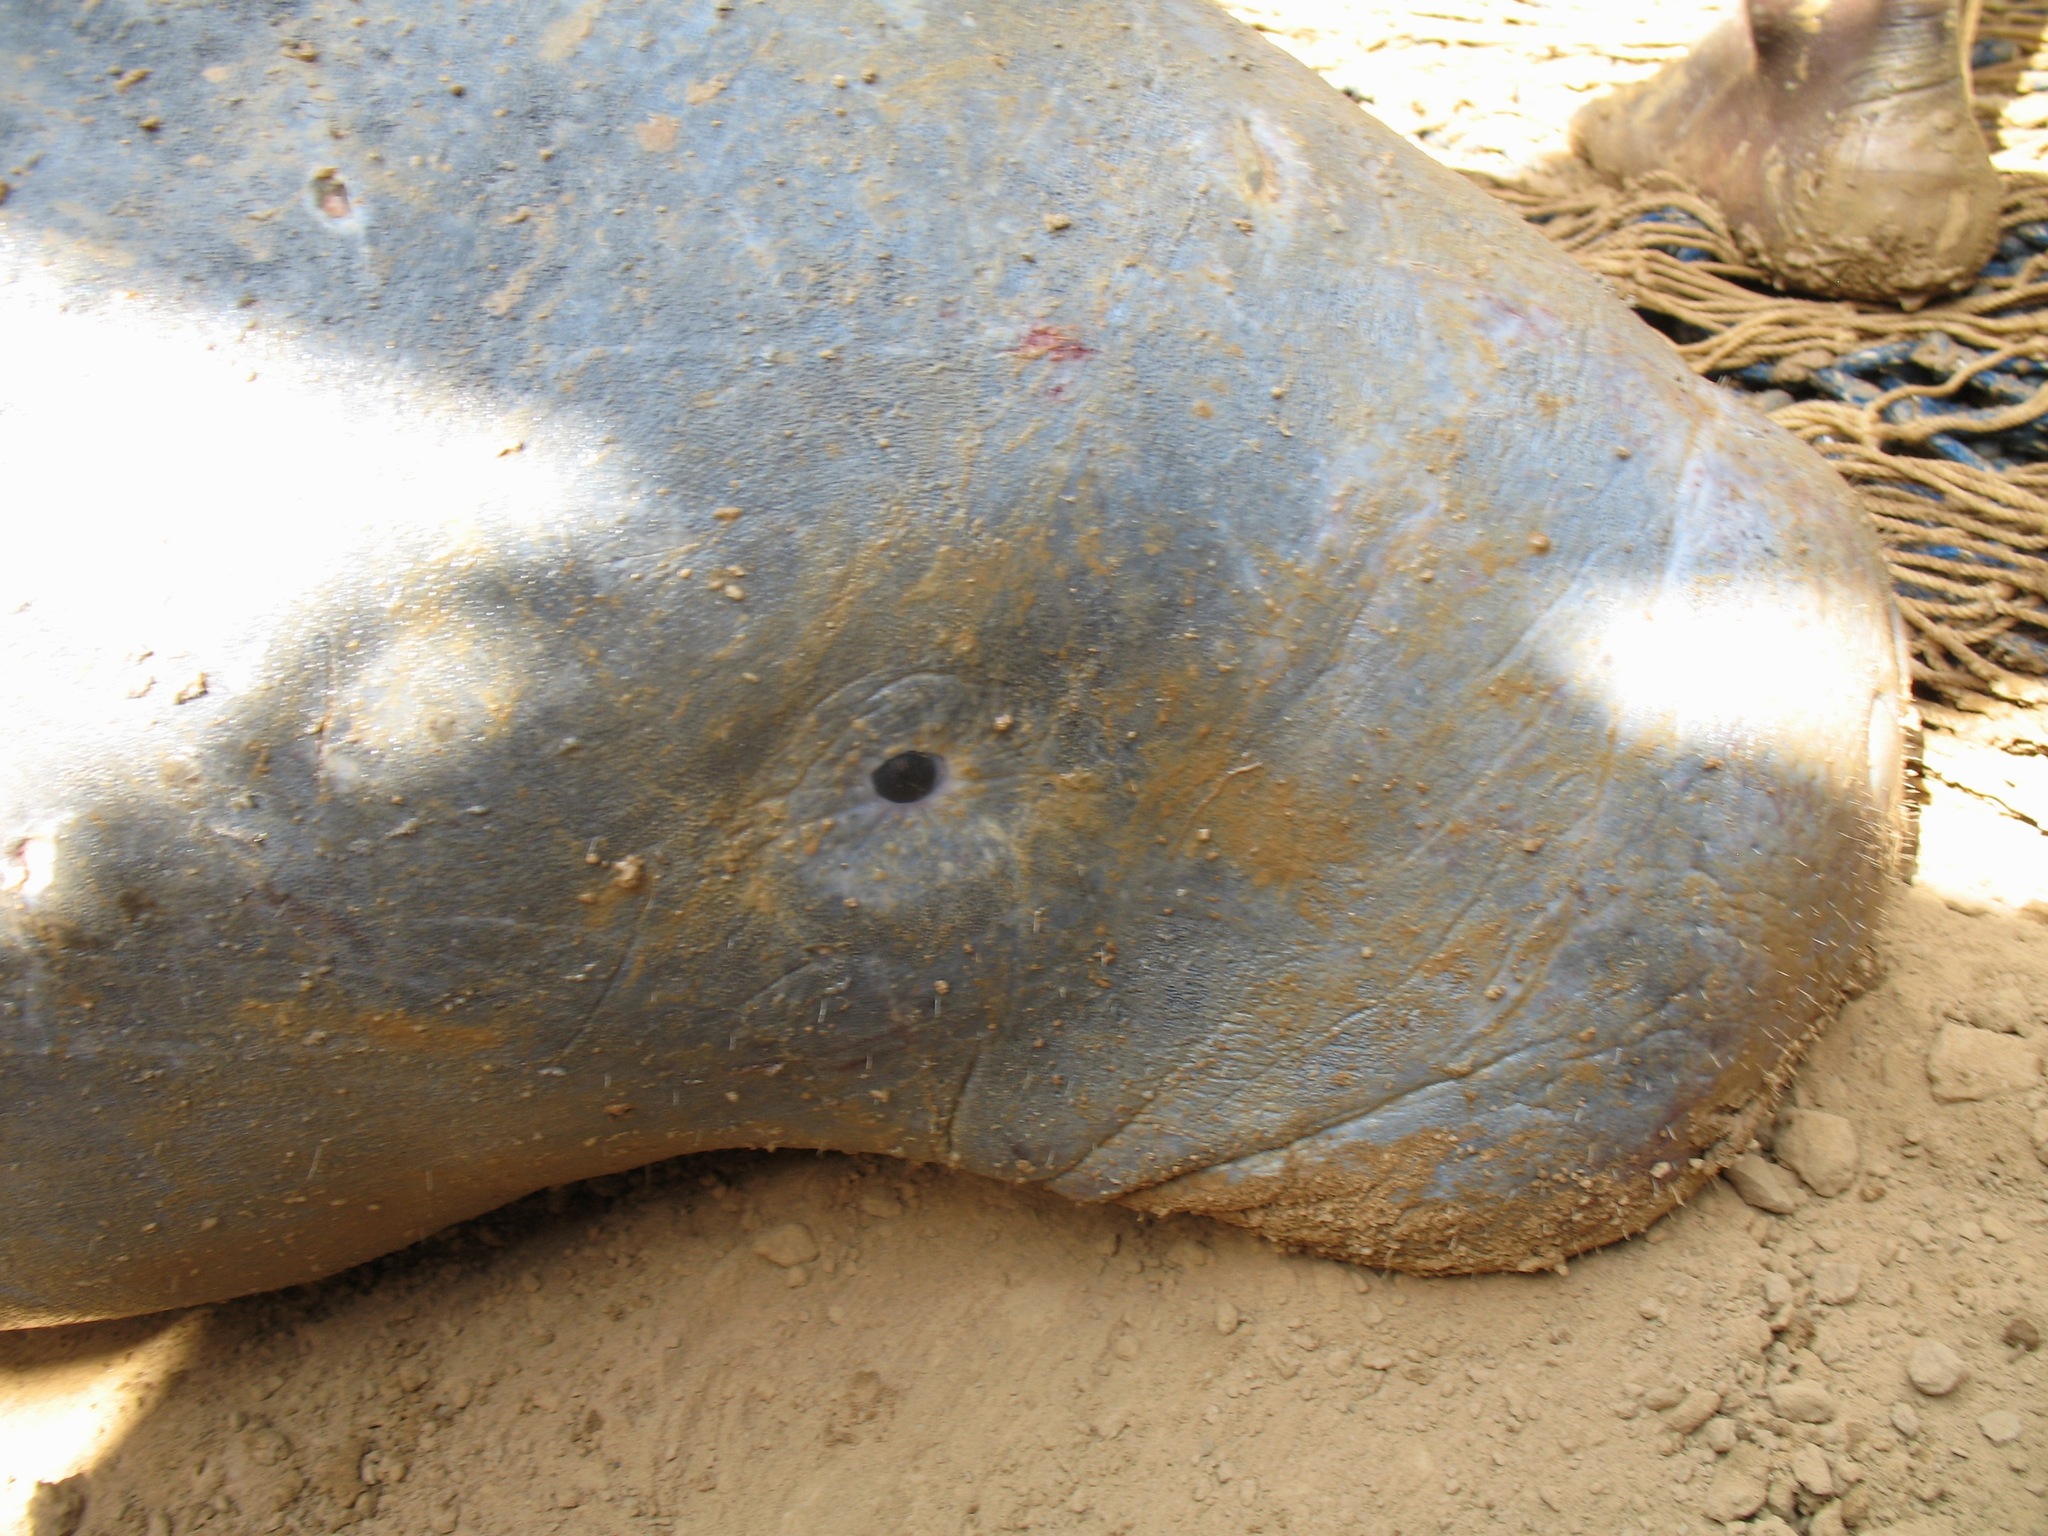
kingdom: Animalia
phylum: Chordata
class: Mammalia
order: Sirenia
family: Trichechidae
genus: Trichechus
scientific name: Trichechus senegalensis
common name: West african manatee
